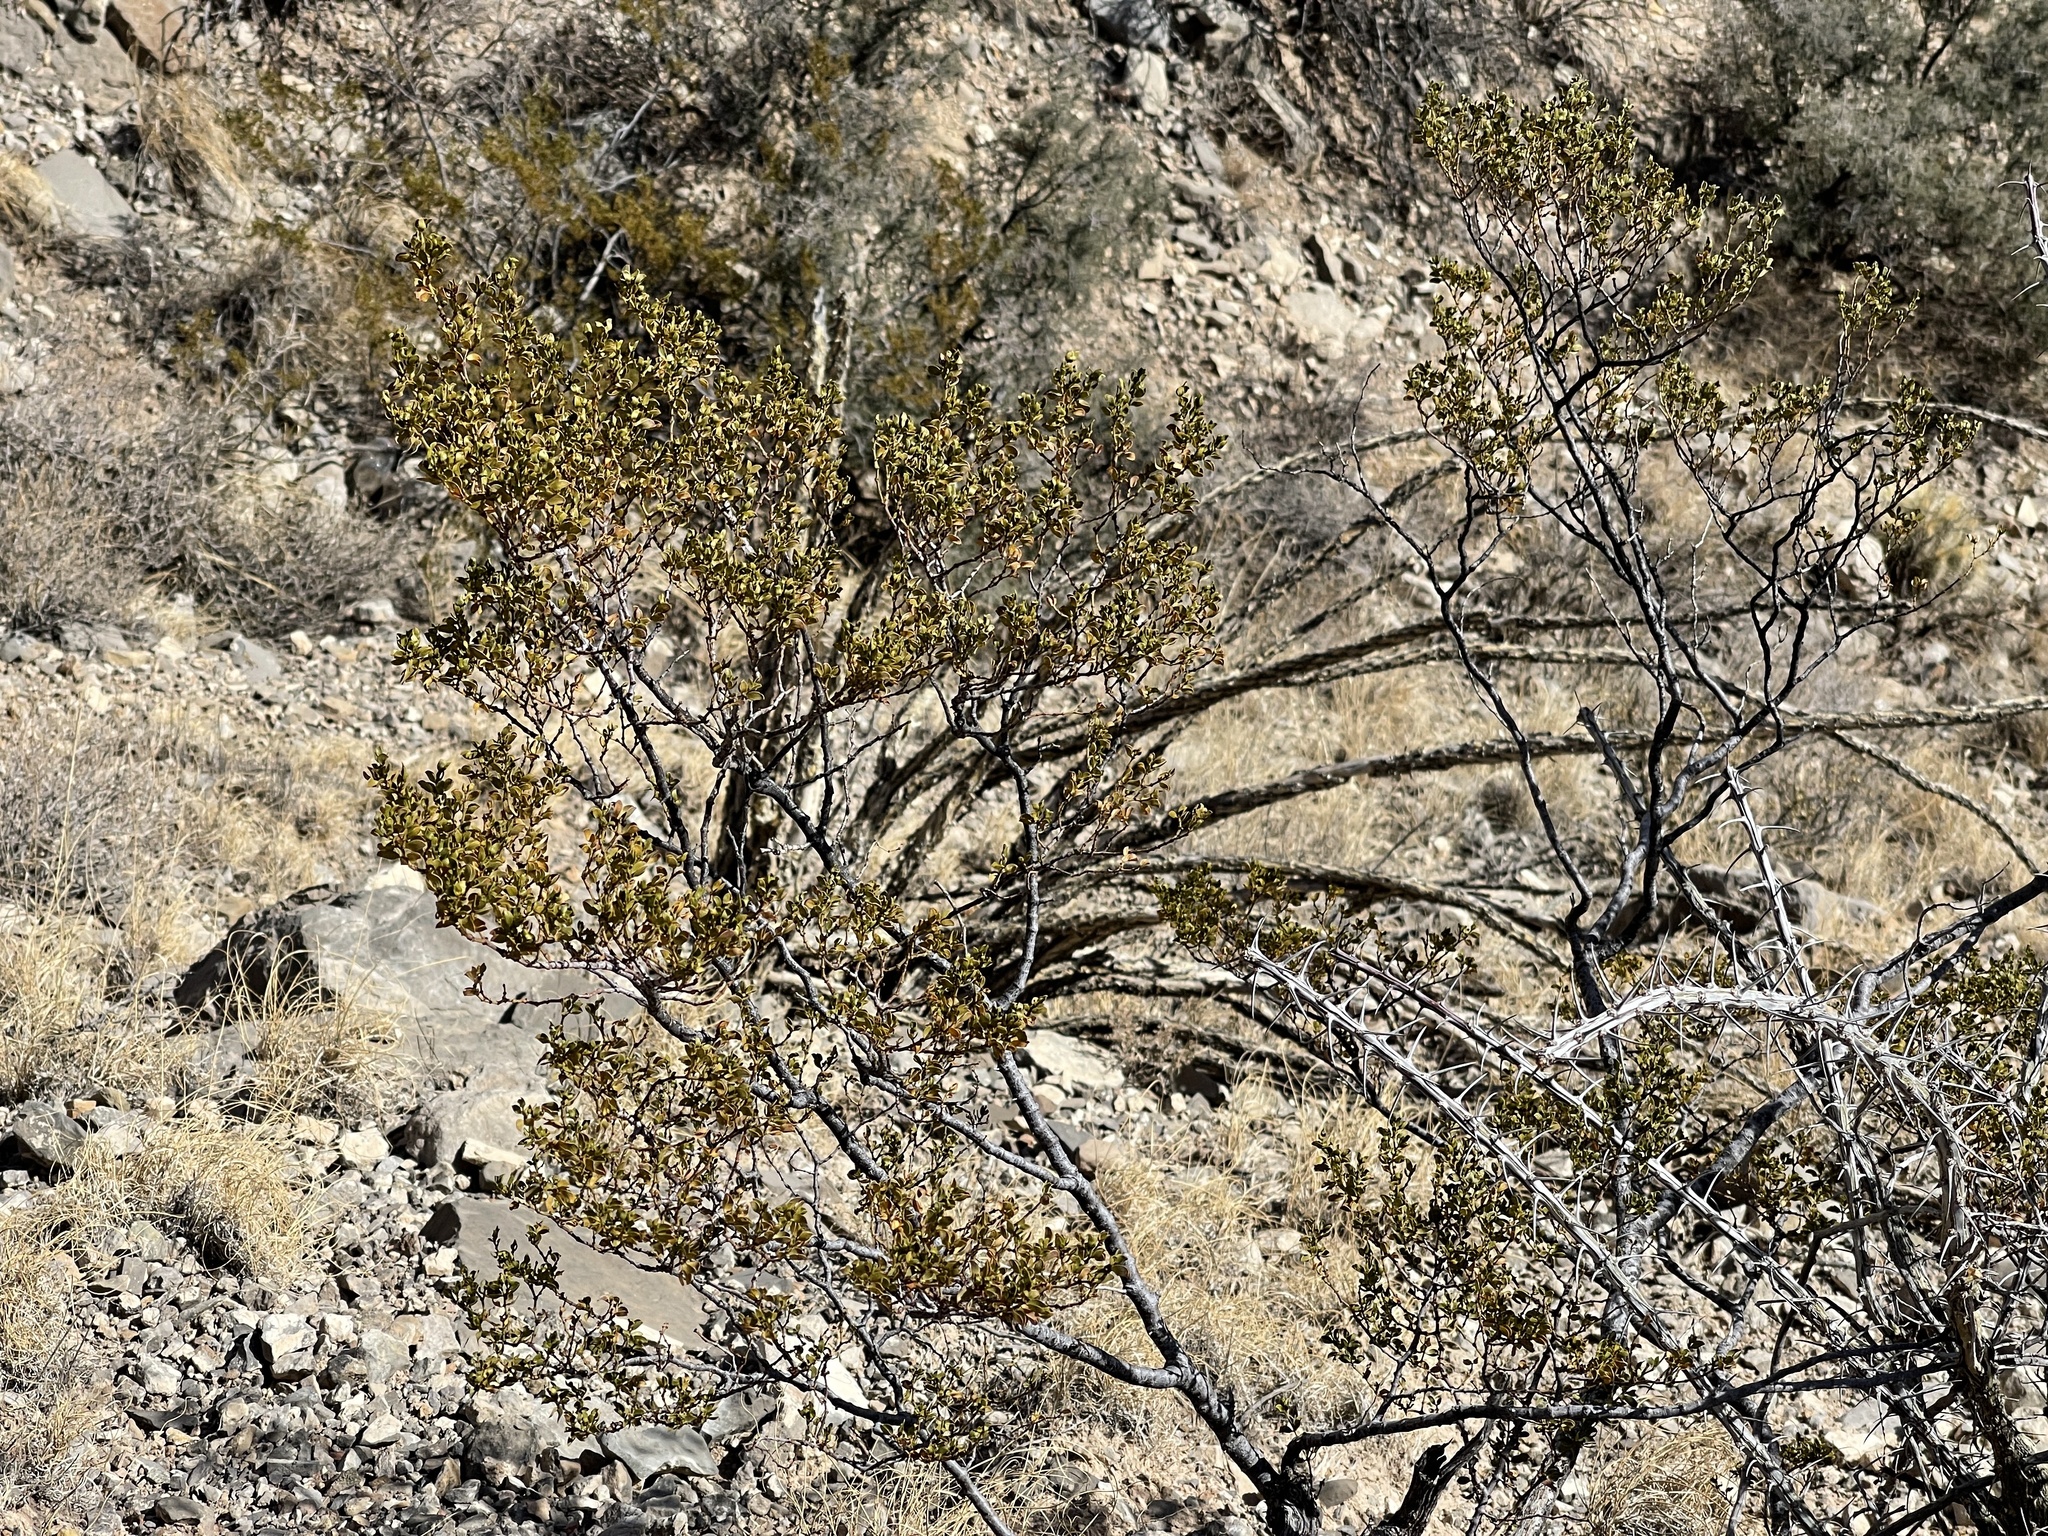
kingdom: Plantae
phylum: Tracheophyta
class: Magnoliopsida
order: Zygophyllales
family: Zygophyllaceae
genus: Larrea
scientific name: Larrea tridentata
